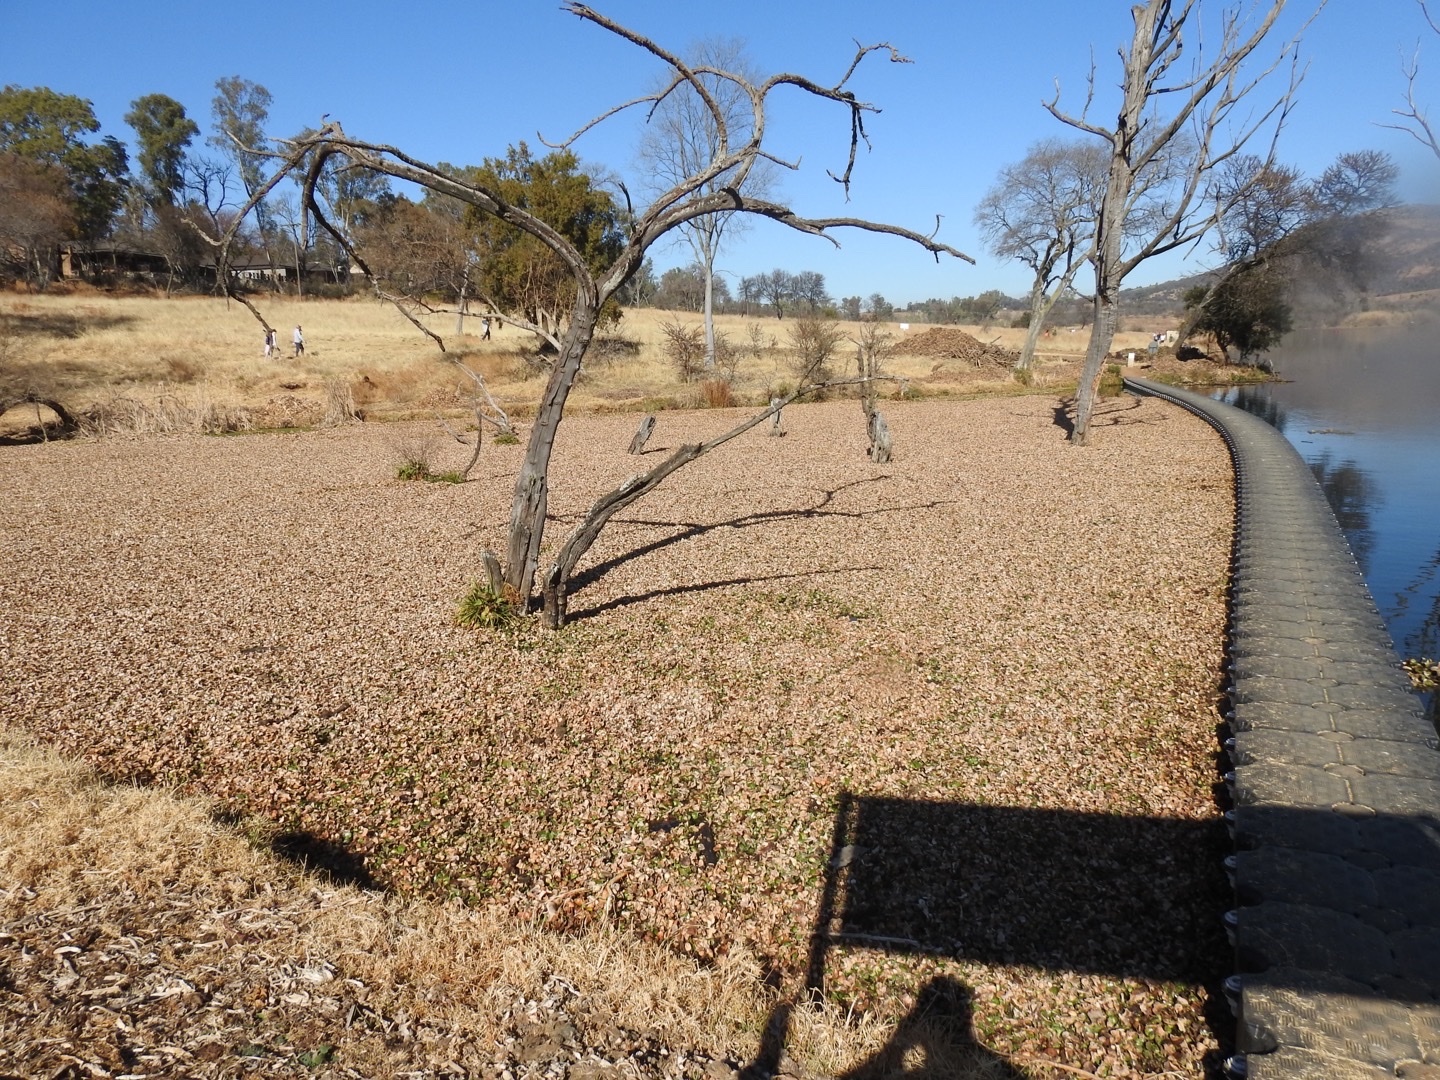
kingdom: Plantae
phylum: Tracheophyta
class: Liliopsida
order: Commelinales
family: Pontederiaceae
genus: Pontederia
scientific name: Pontederia crassipes
